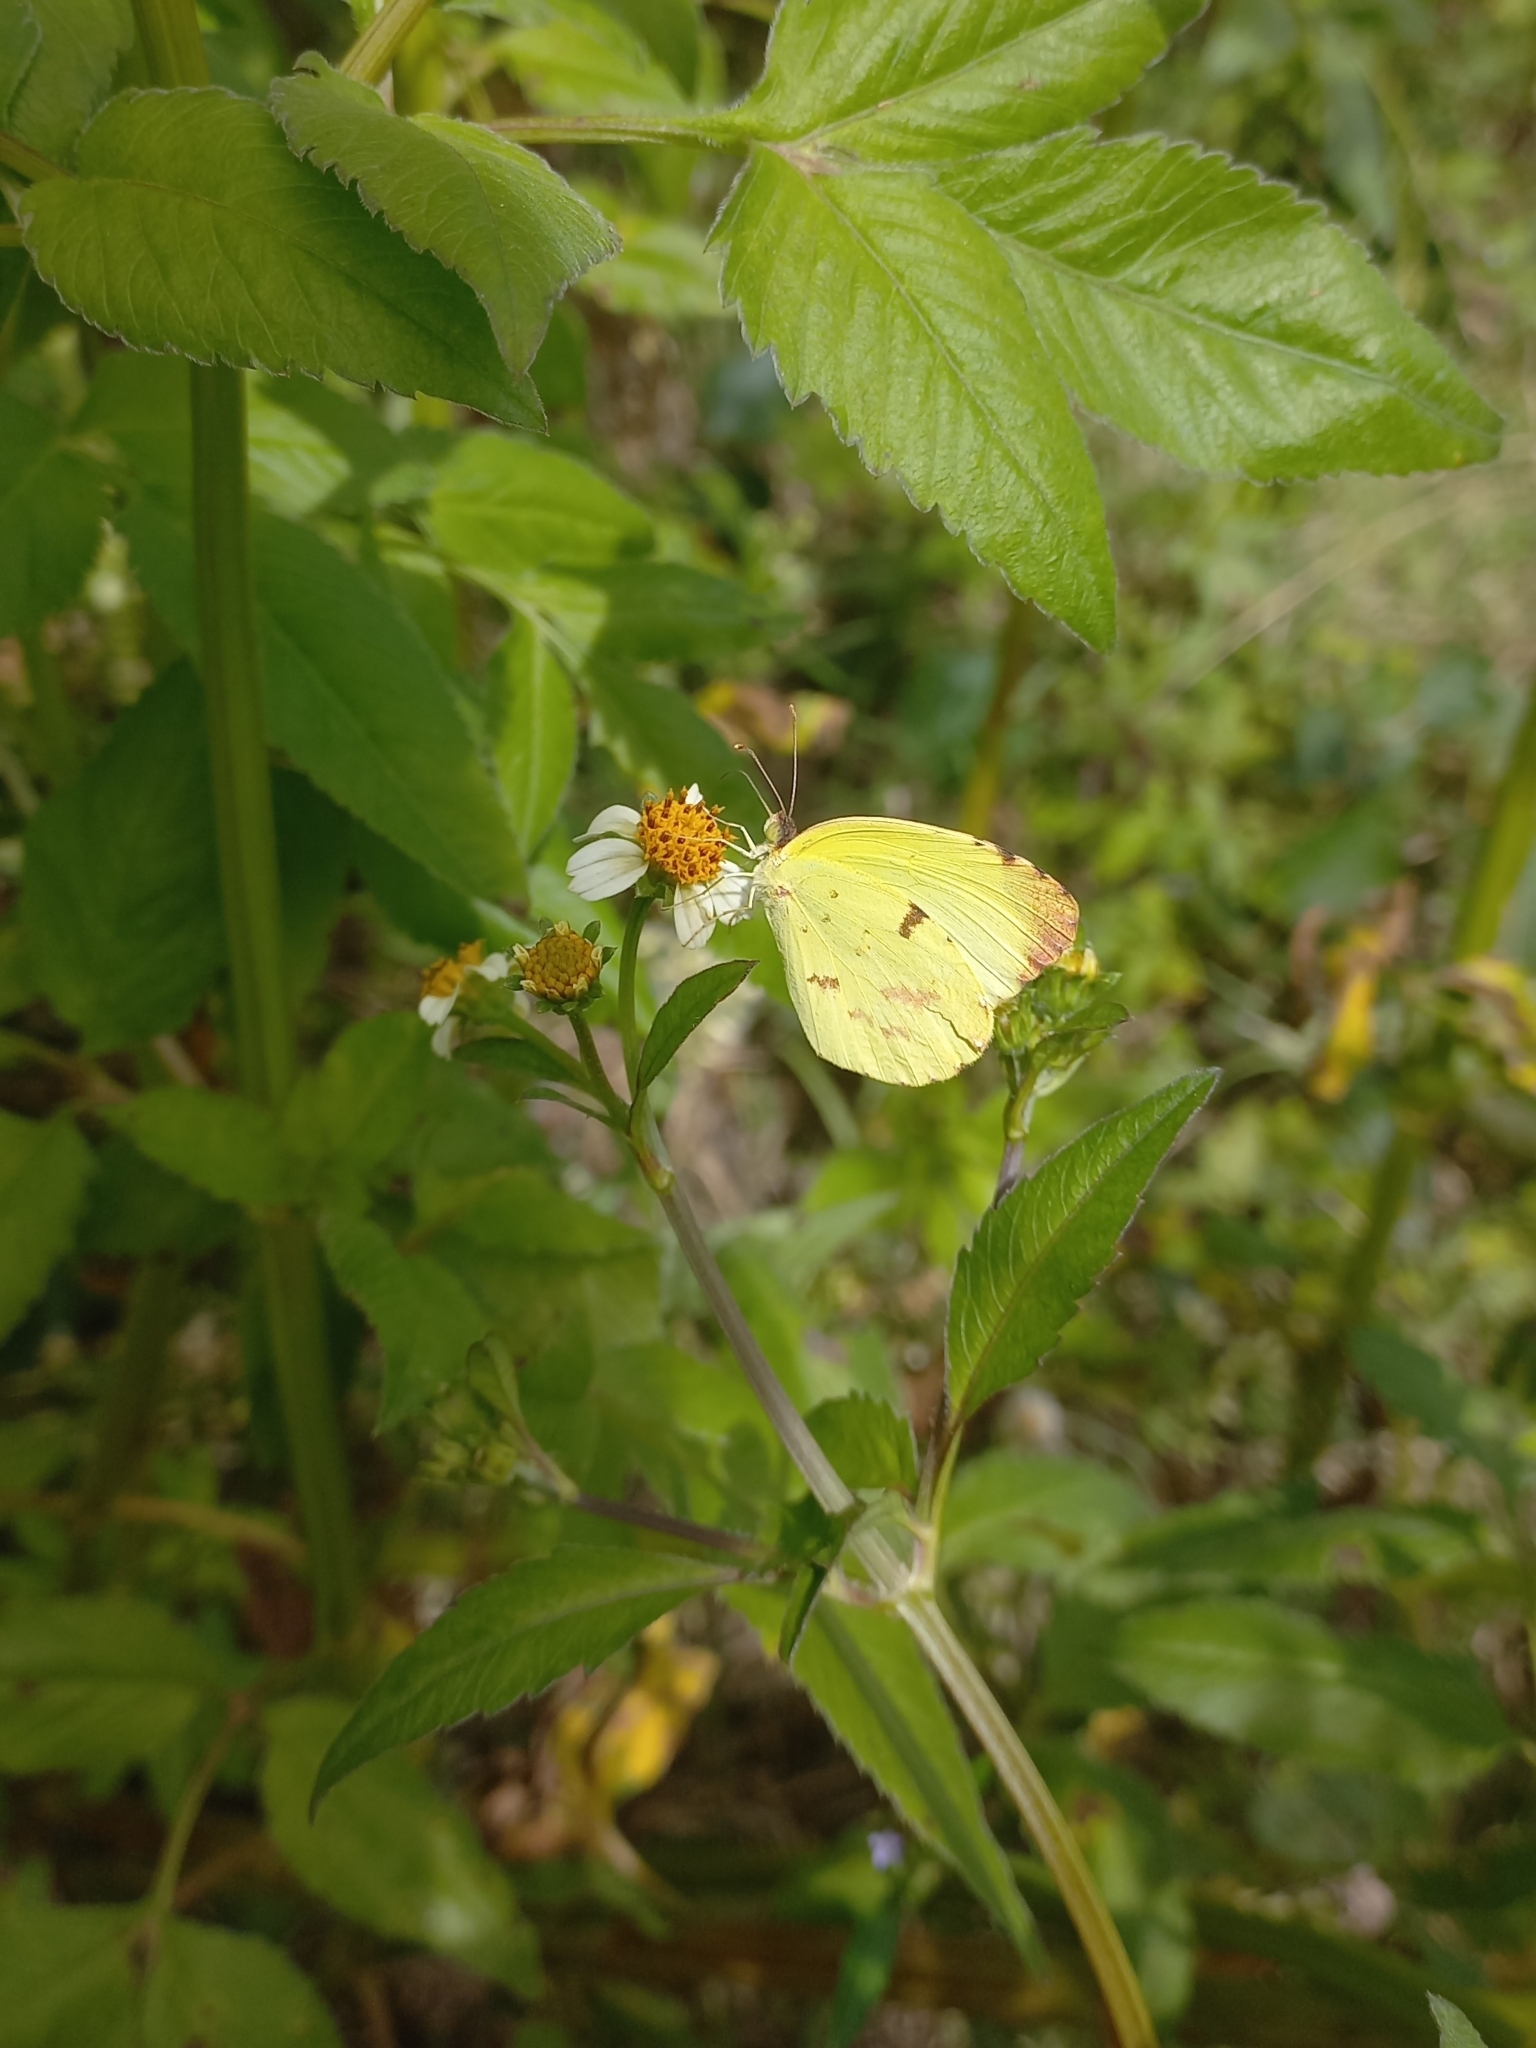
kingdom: Animalia
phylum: Arthropoda
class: Insecta
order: Lepidoptera
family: Pieridae
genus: Teriocolias
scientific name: Teriocolias
